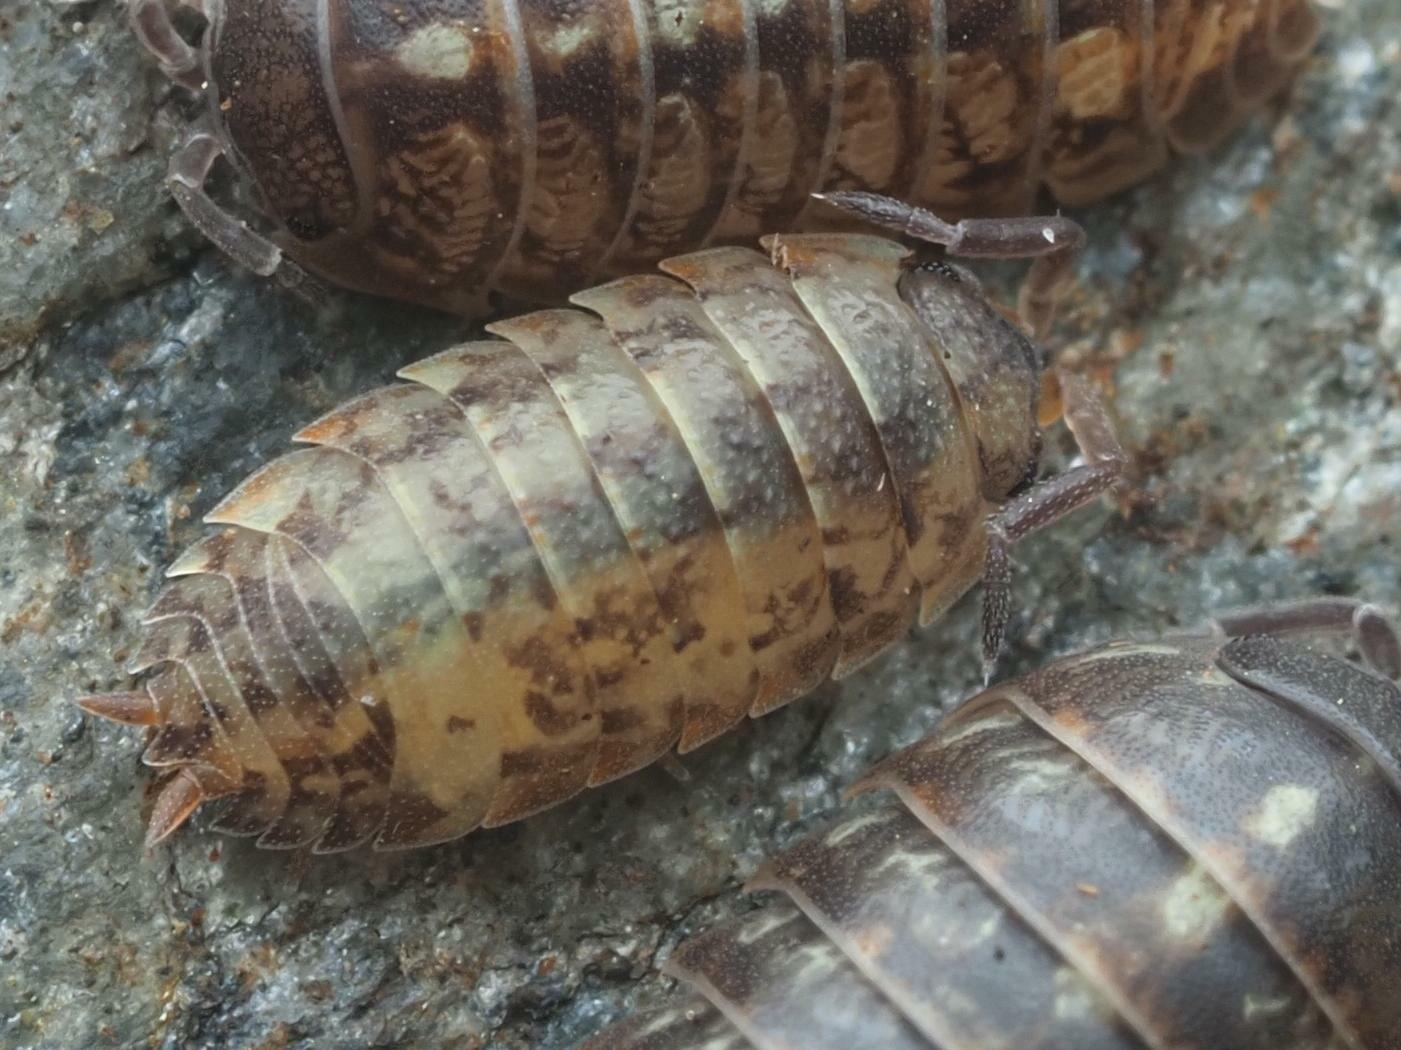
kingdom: Animalia
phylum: Arthropoda
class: Malacostraca
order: Isopoda
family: Porcellionidae
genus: Porcellio
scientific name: Porcellio scaber
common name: Common rough woodlouse
